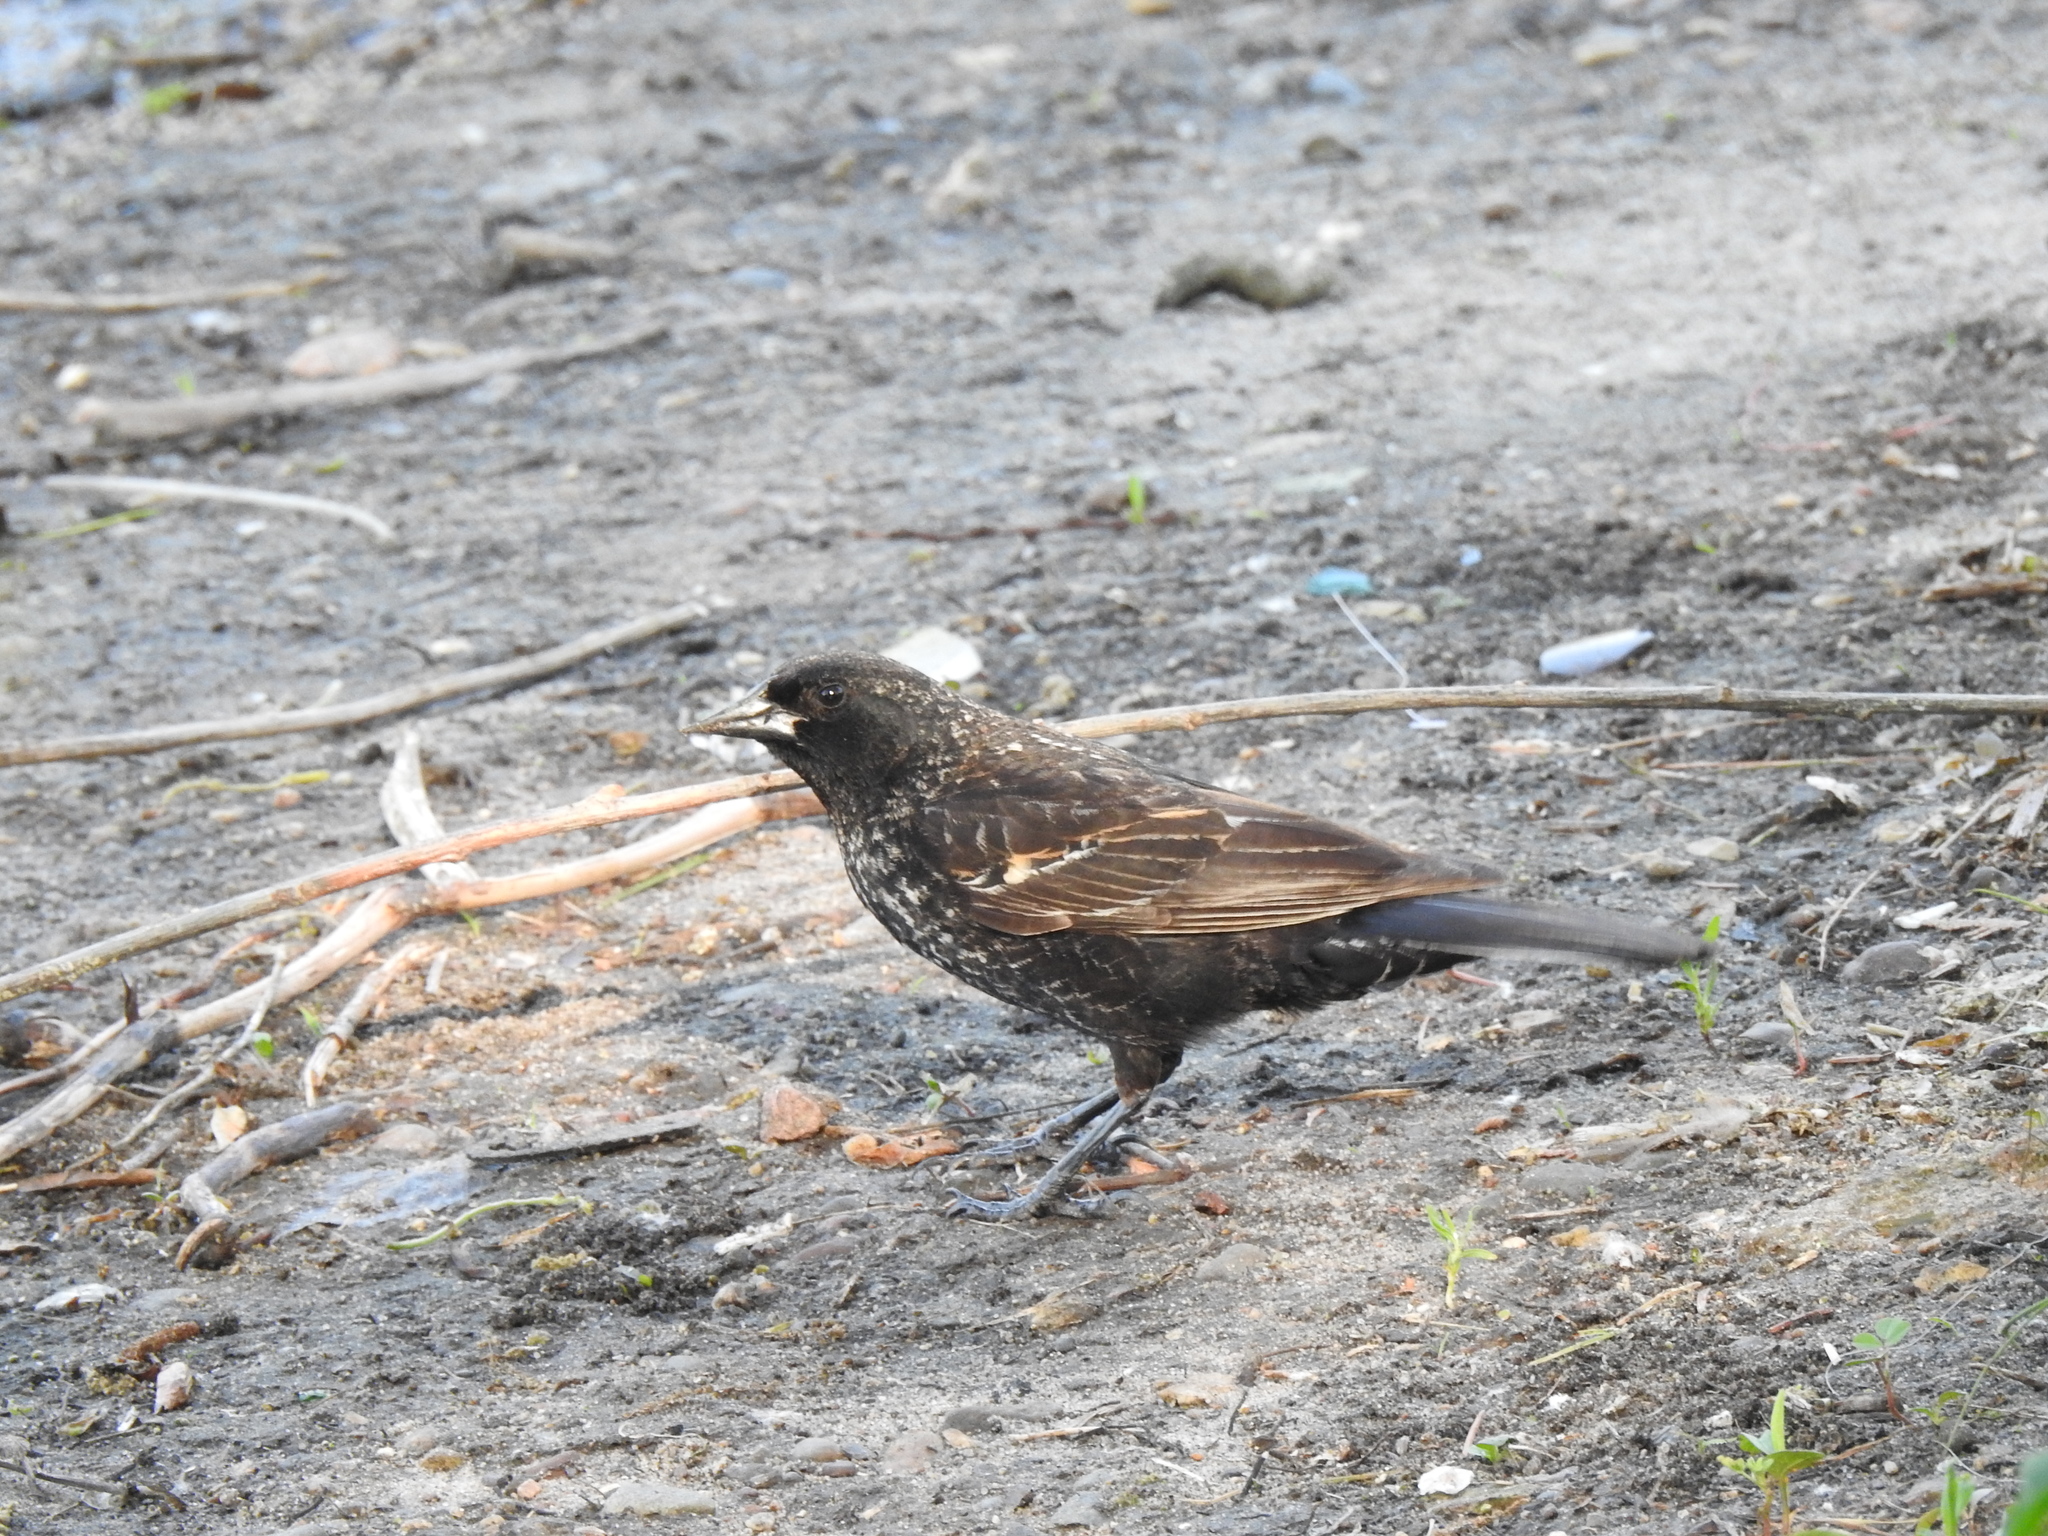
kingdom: Animalia
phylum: Chordata
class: Aves
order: Passeriformes
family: Icteridae
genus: Agelaius
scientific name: Agelaius phoeniceus
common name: Red-winged blackbird
